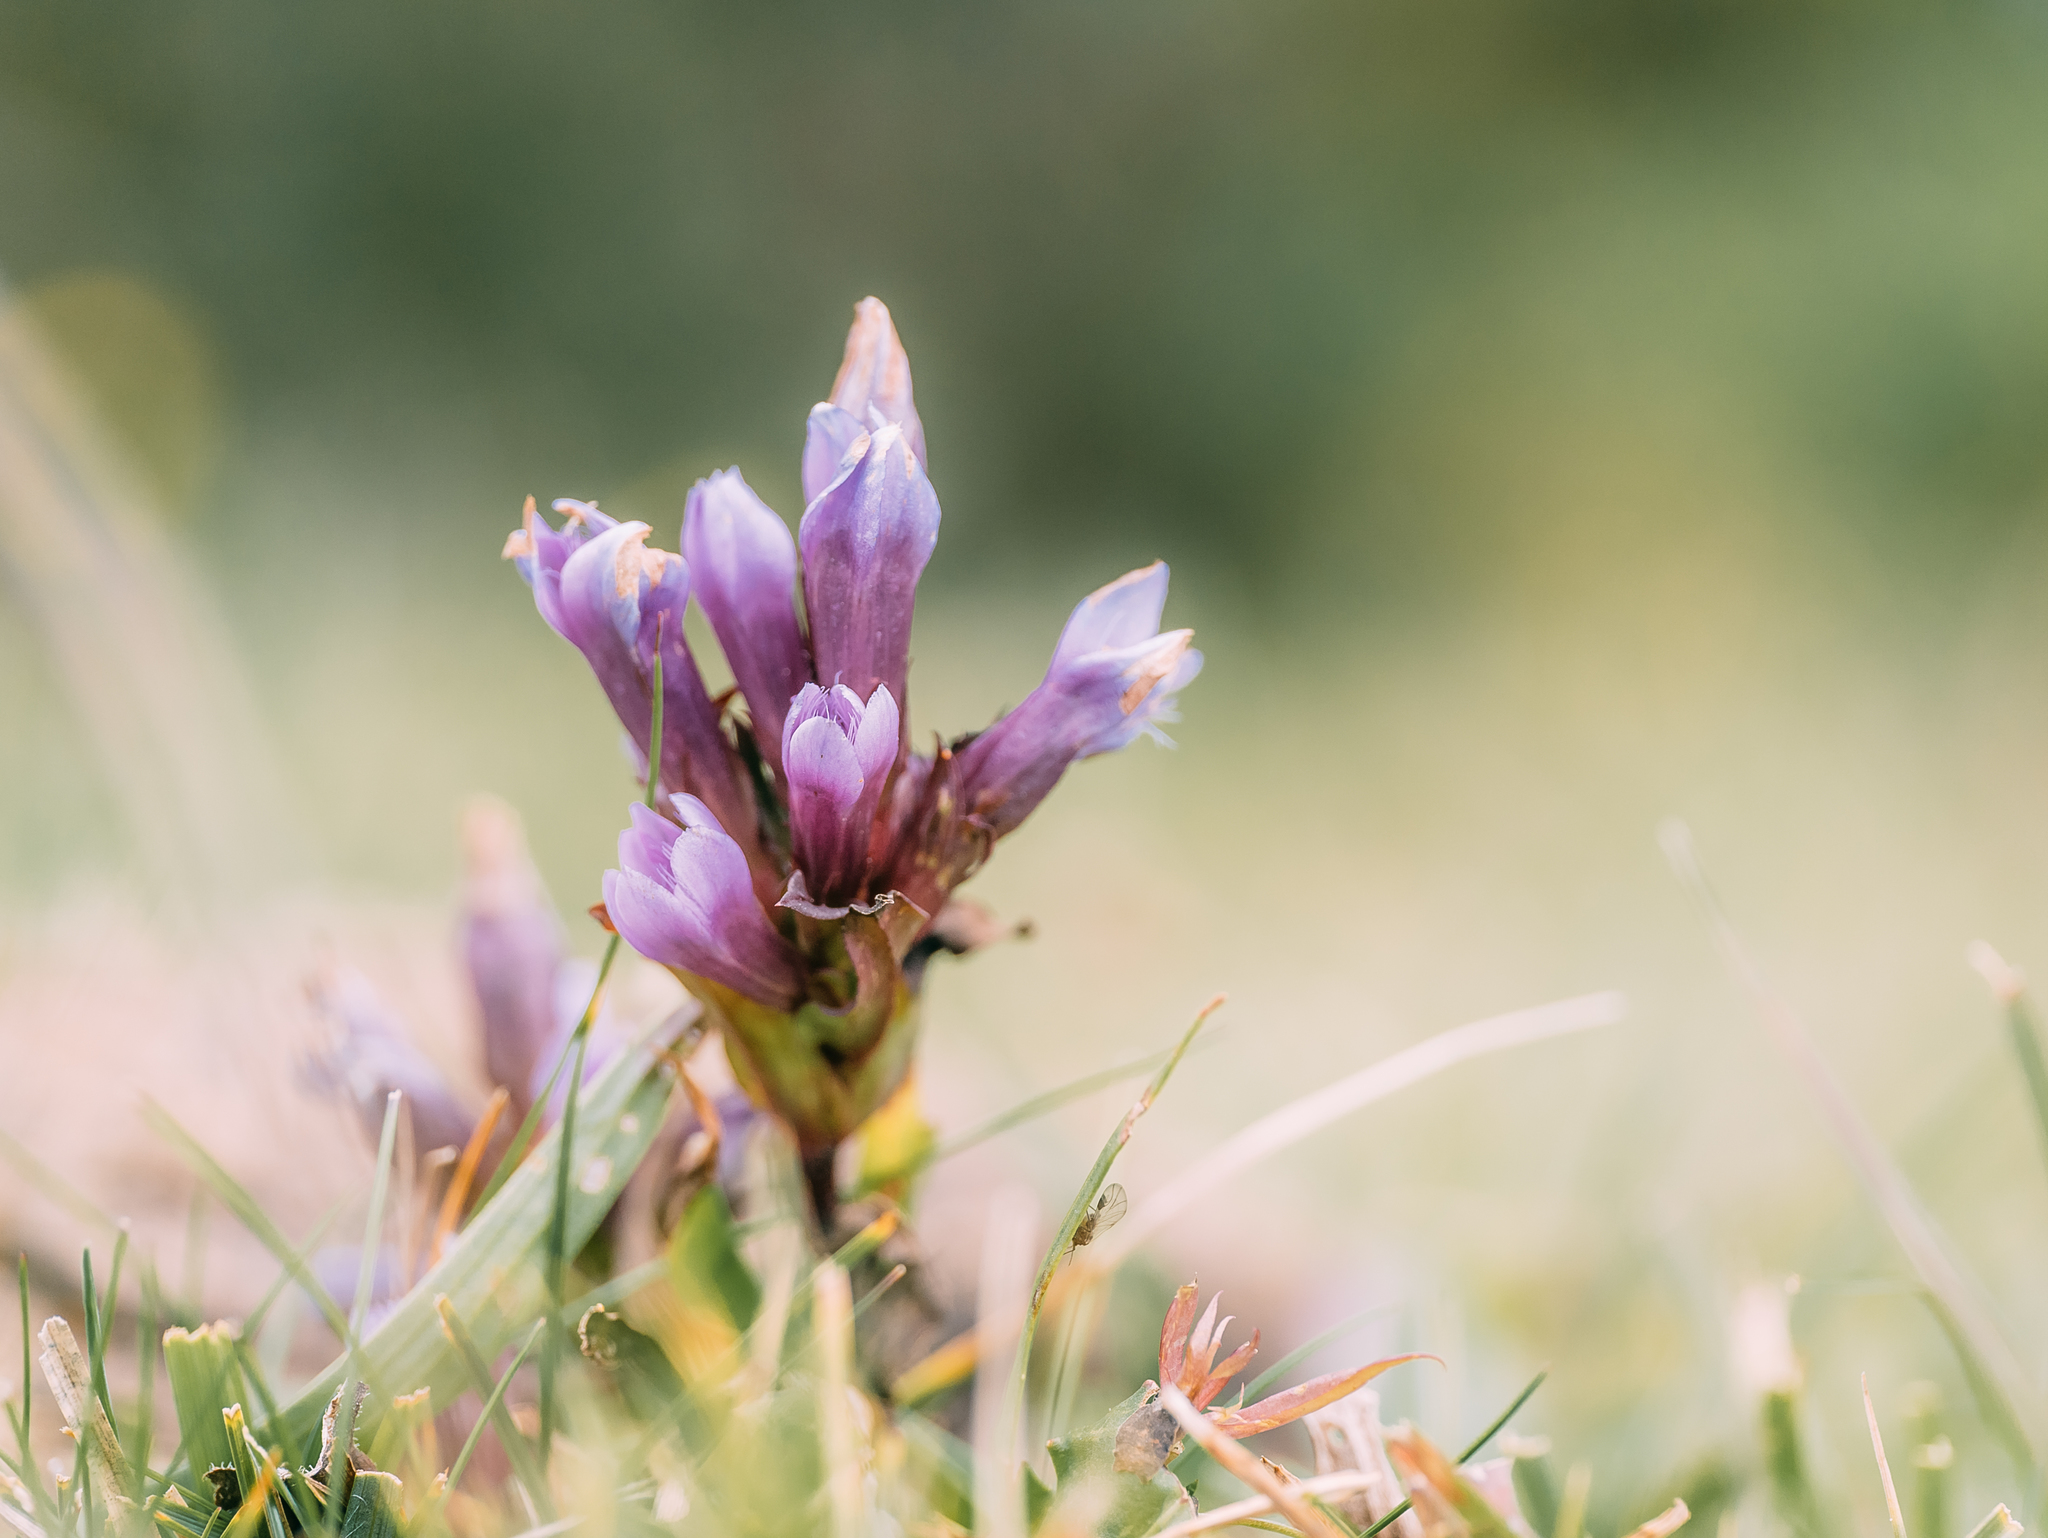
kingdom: Plantae
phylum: Tracheophyta
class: Magnoliopsida
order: Gentianales
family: Gentianaceae
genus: Gentianella
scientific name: Gentianella biebersteinii
